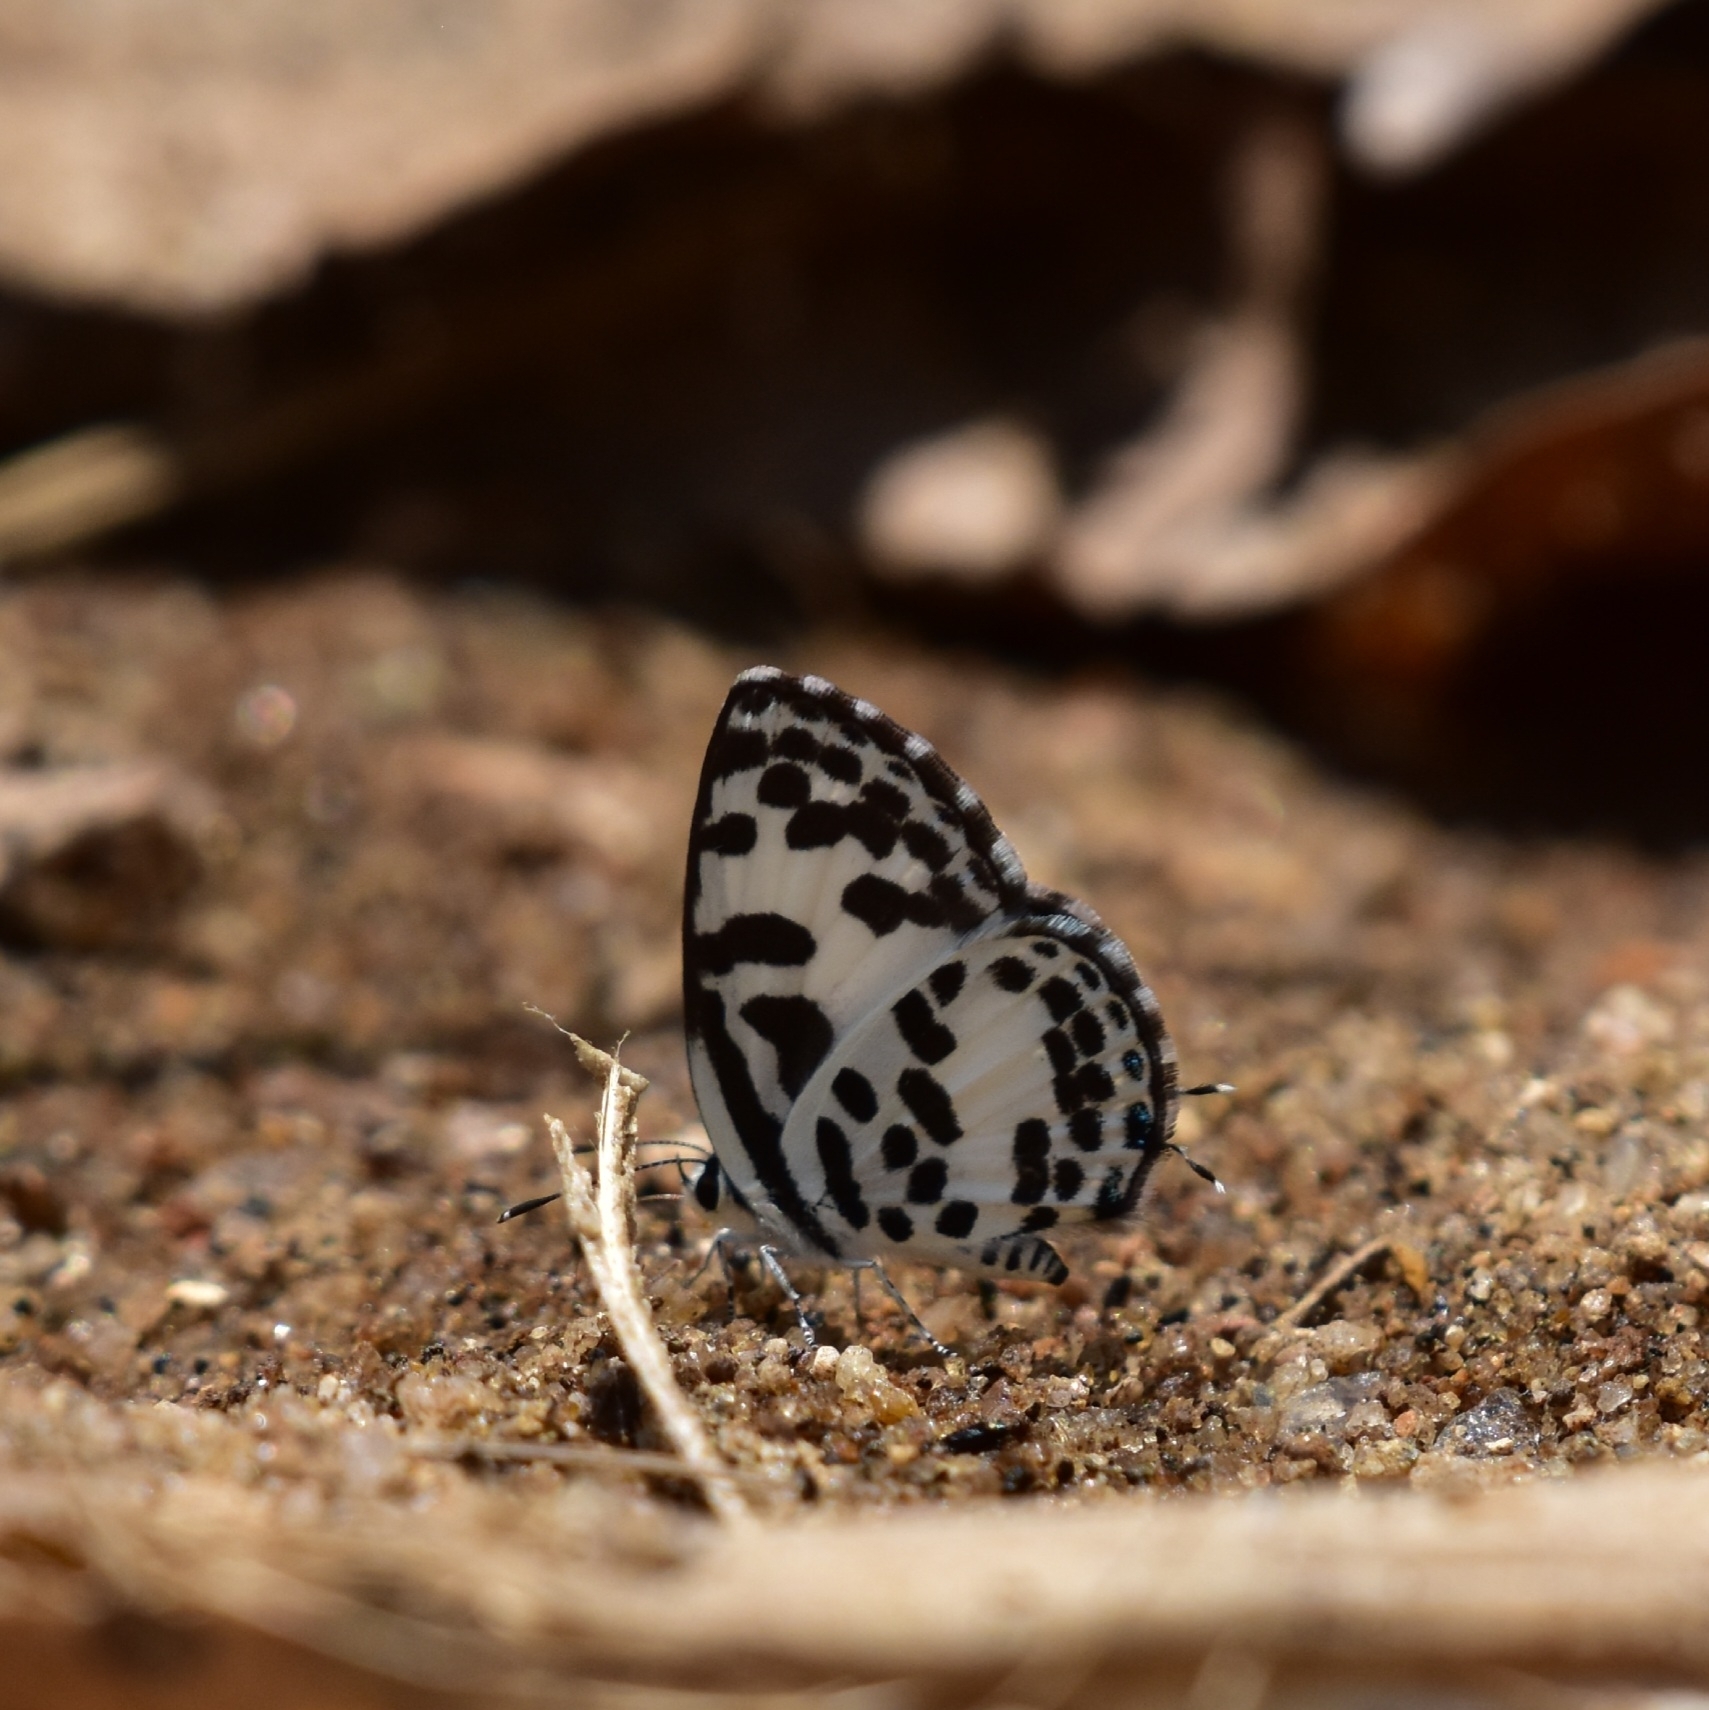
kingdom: Animalia
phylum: Arthropoda
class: Insecta
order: Lepidoptera
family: Lycaenidae
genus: Castalius
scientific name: Castalius rosimon
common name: Common pierrot
